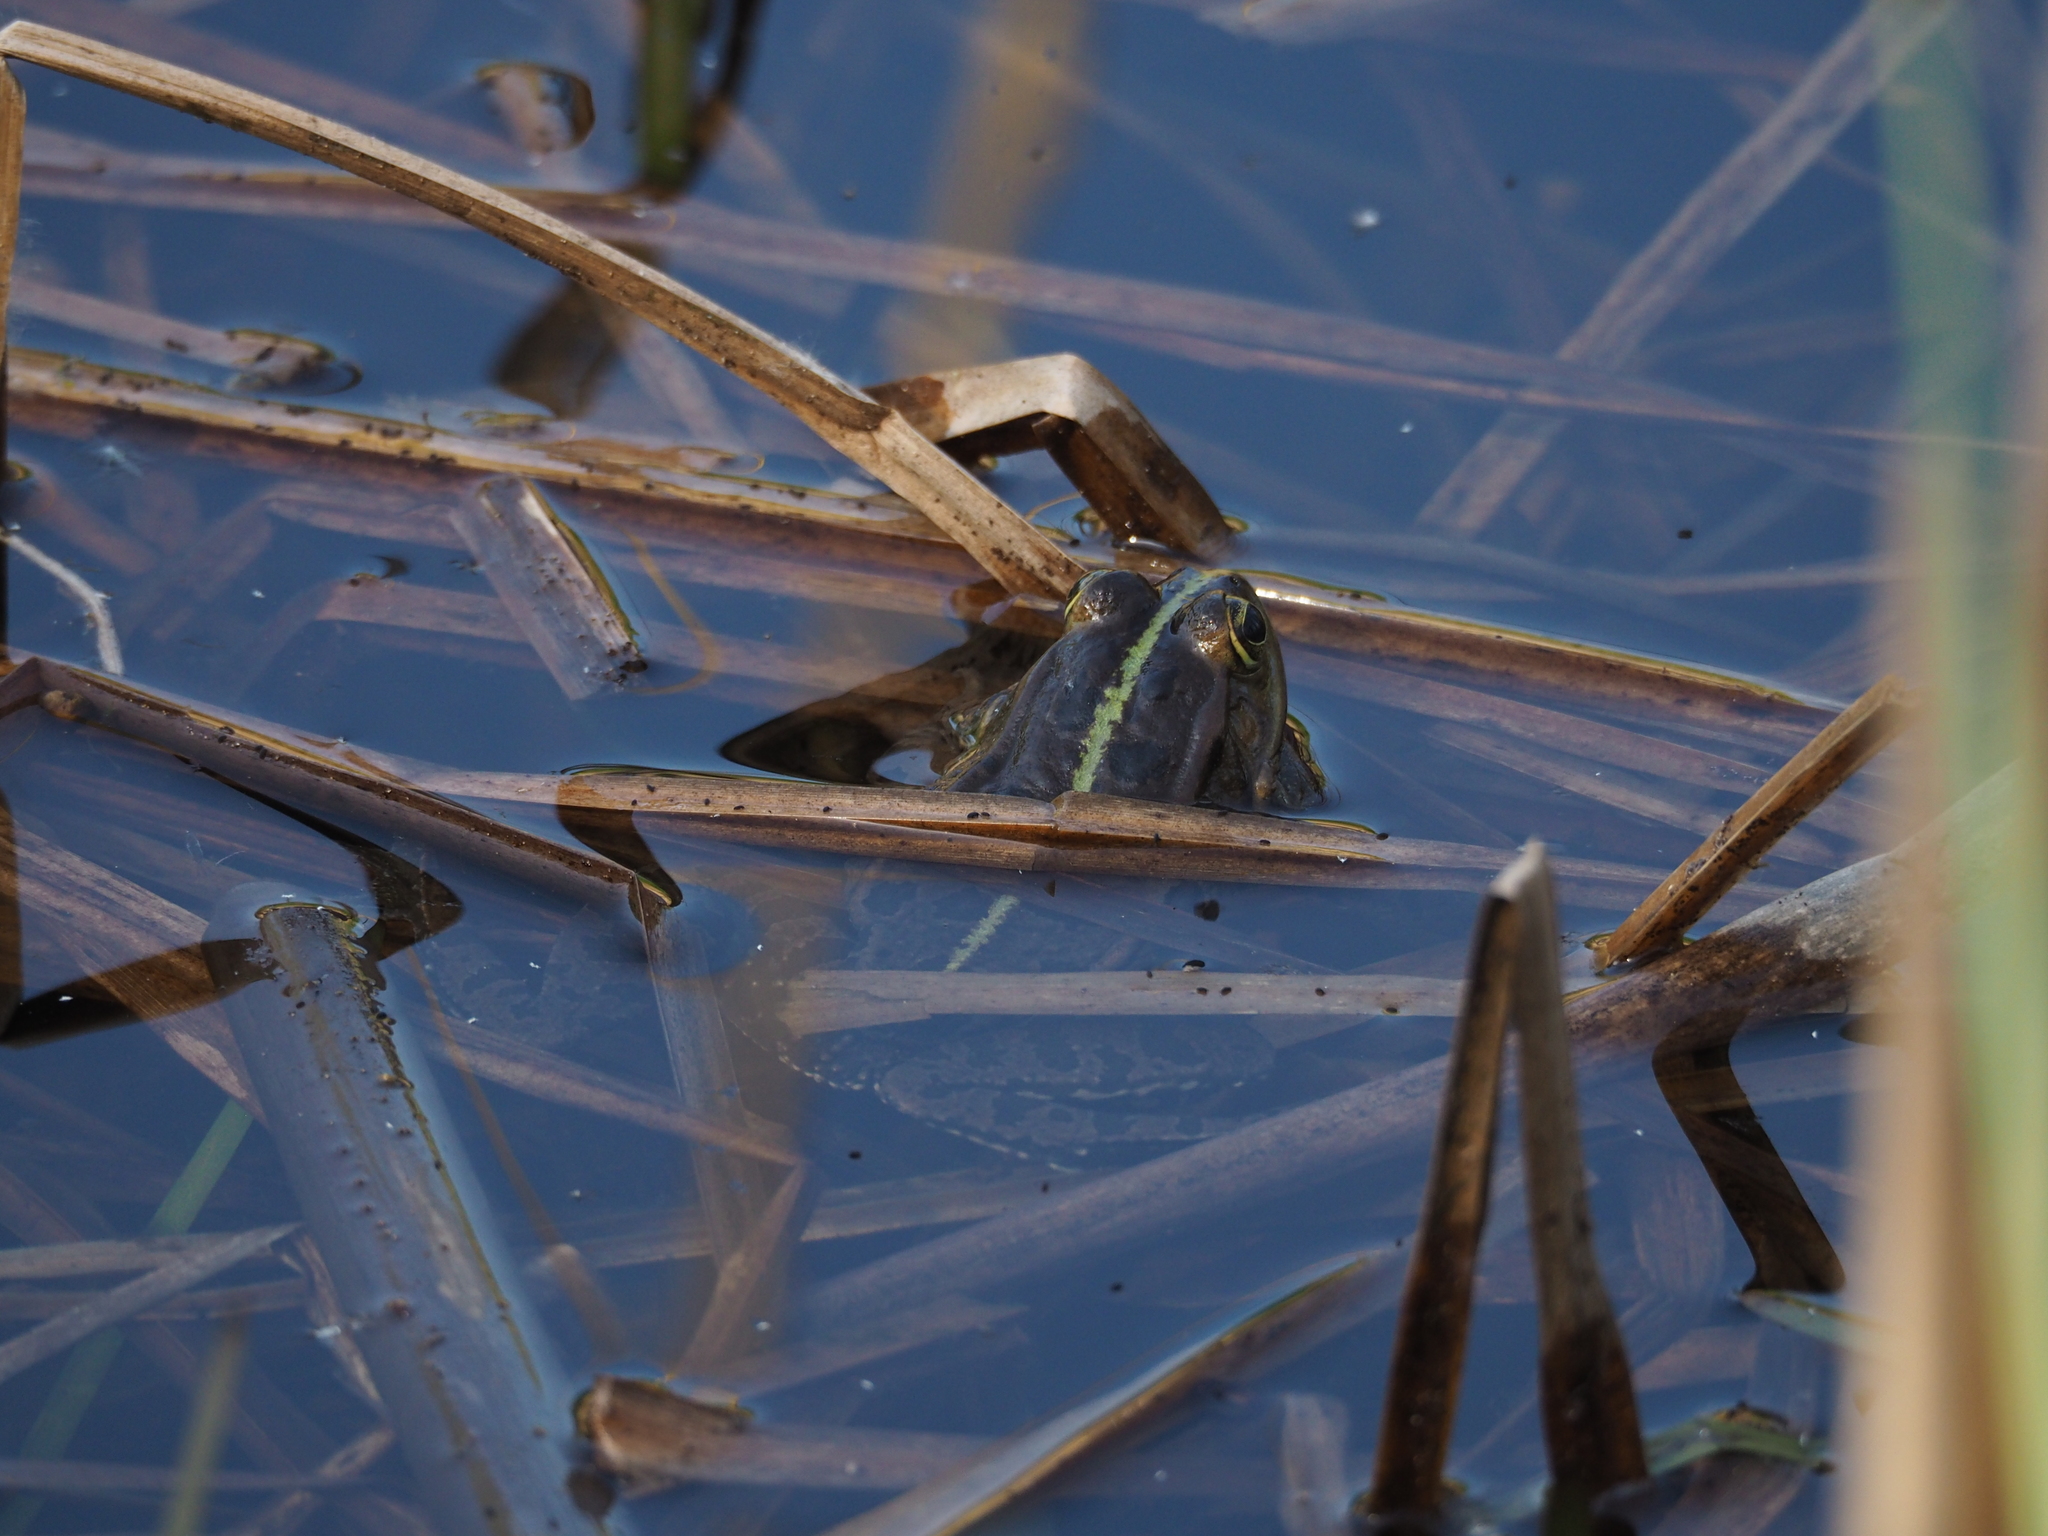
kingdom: Animalia
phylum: Chordata
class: Amphibia
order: Anura
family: Ranidae
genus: Pelophylax
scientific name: Pelophylax
